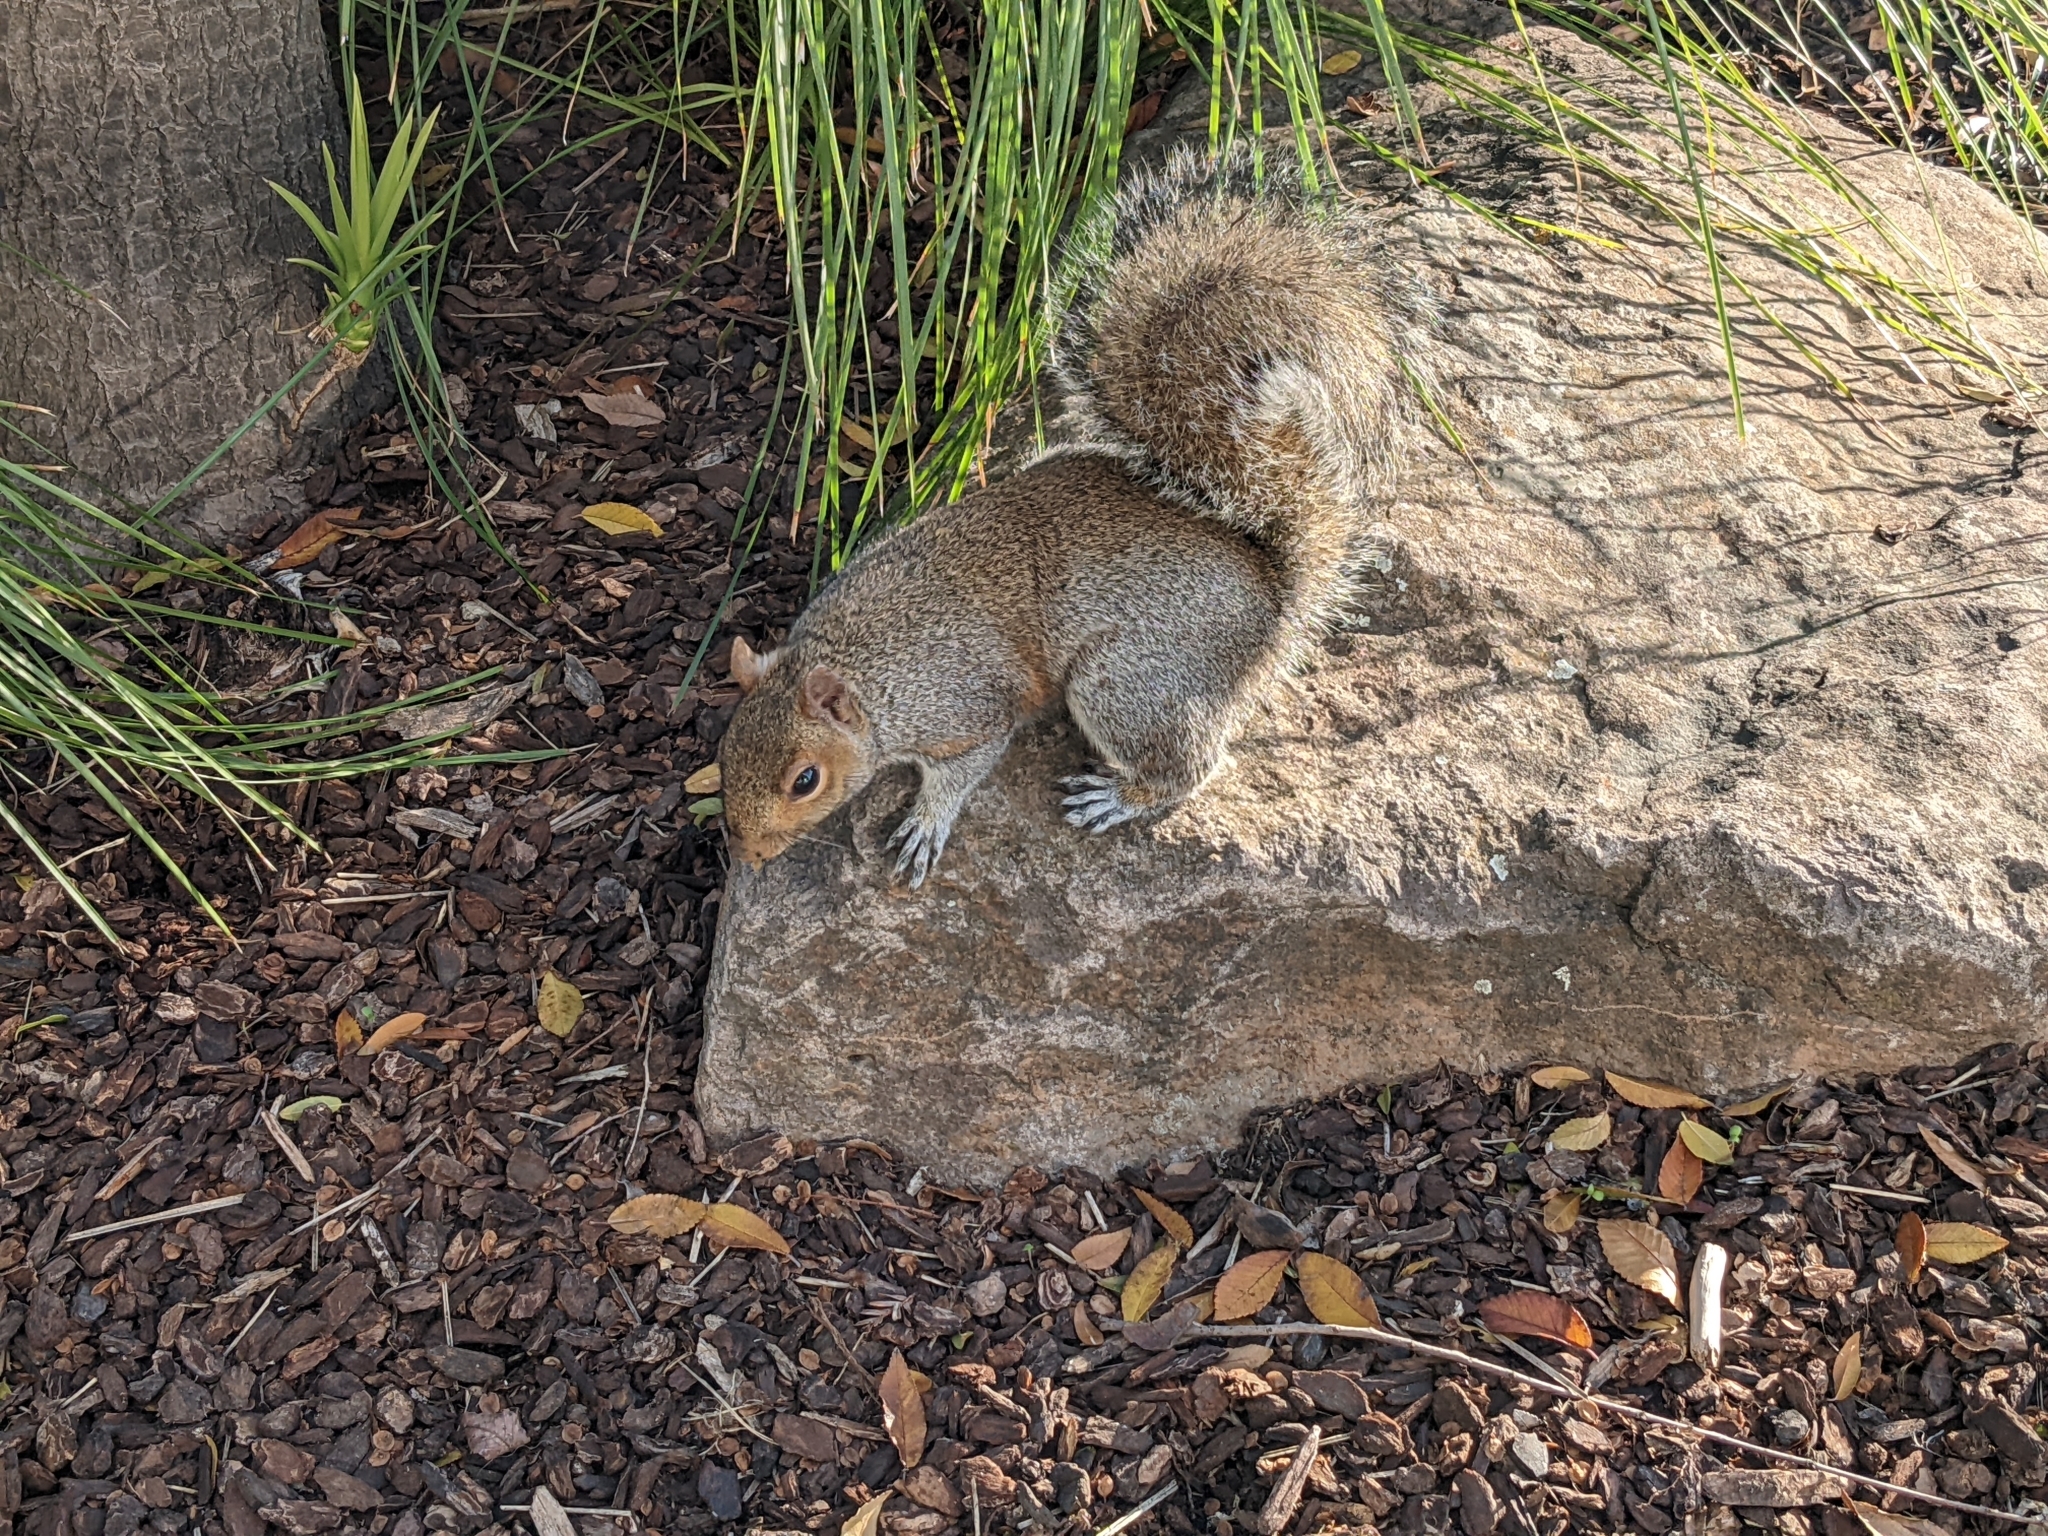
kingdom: Animalia
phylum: Chordata
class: Mammalia
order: Rodentia
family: Sciuridae
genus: Sciurus
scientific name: Sciurus carolinensis
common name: Eastern gray squirrel
